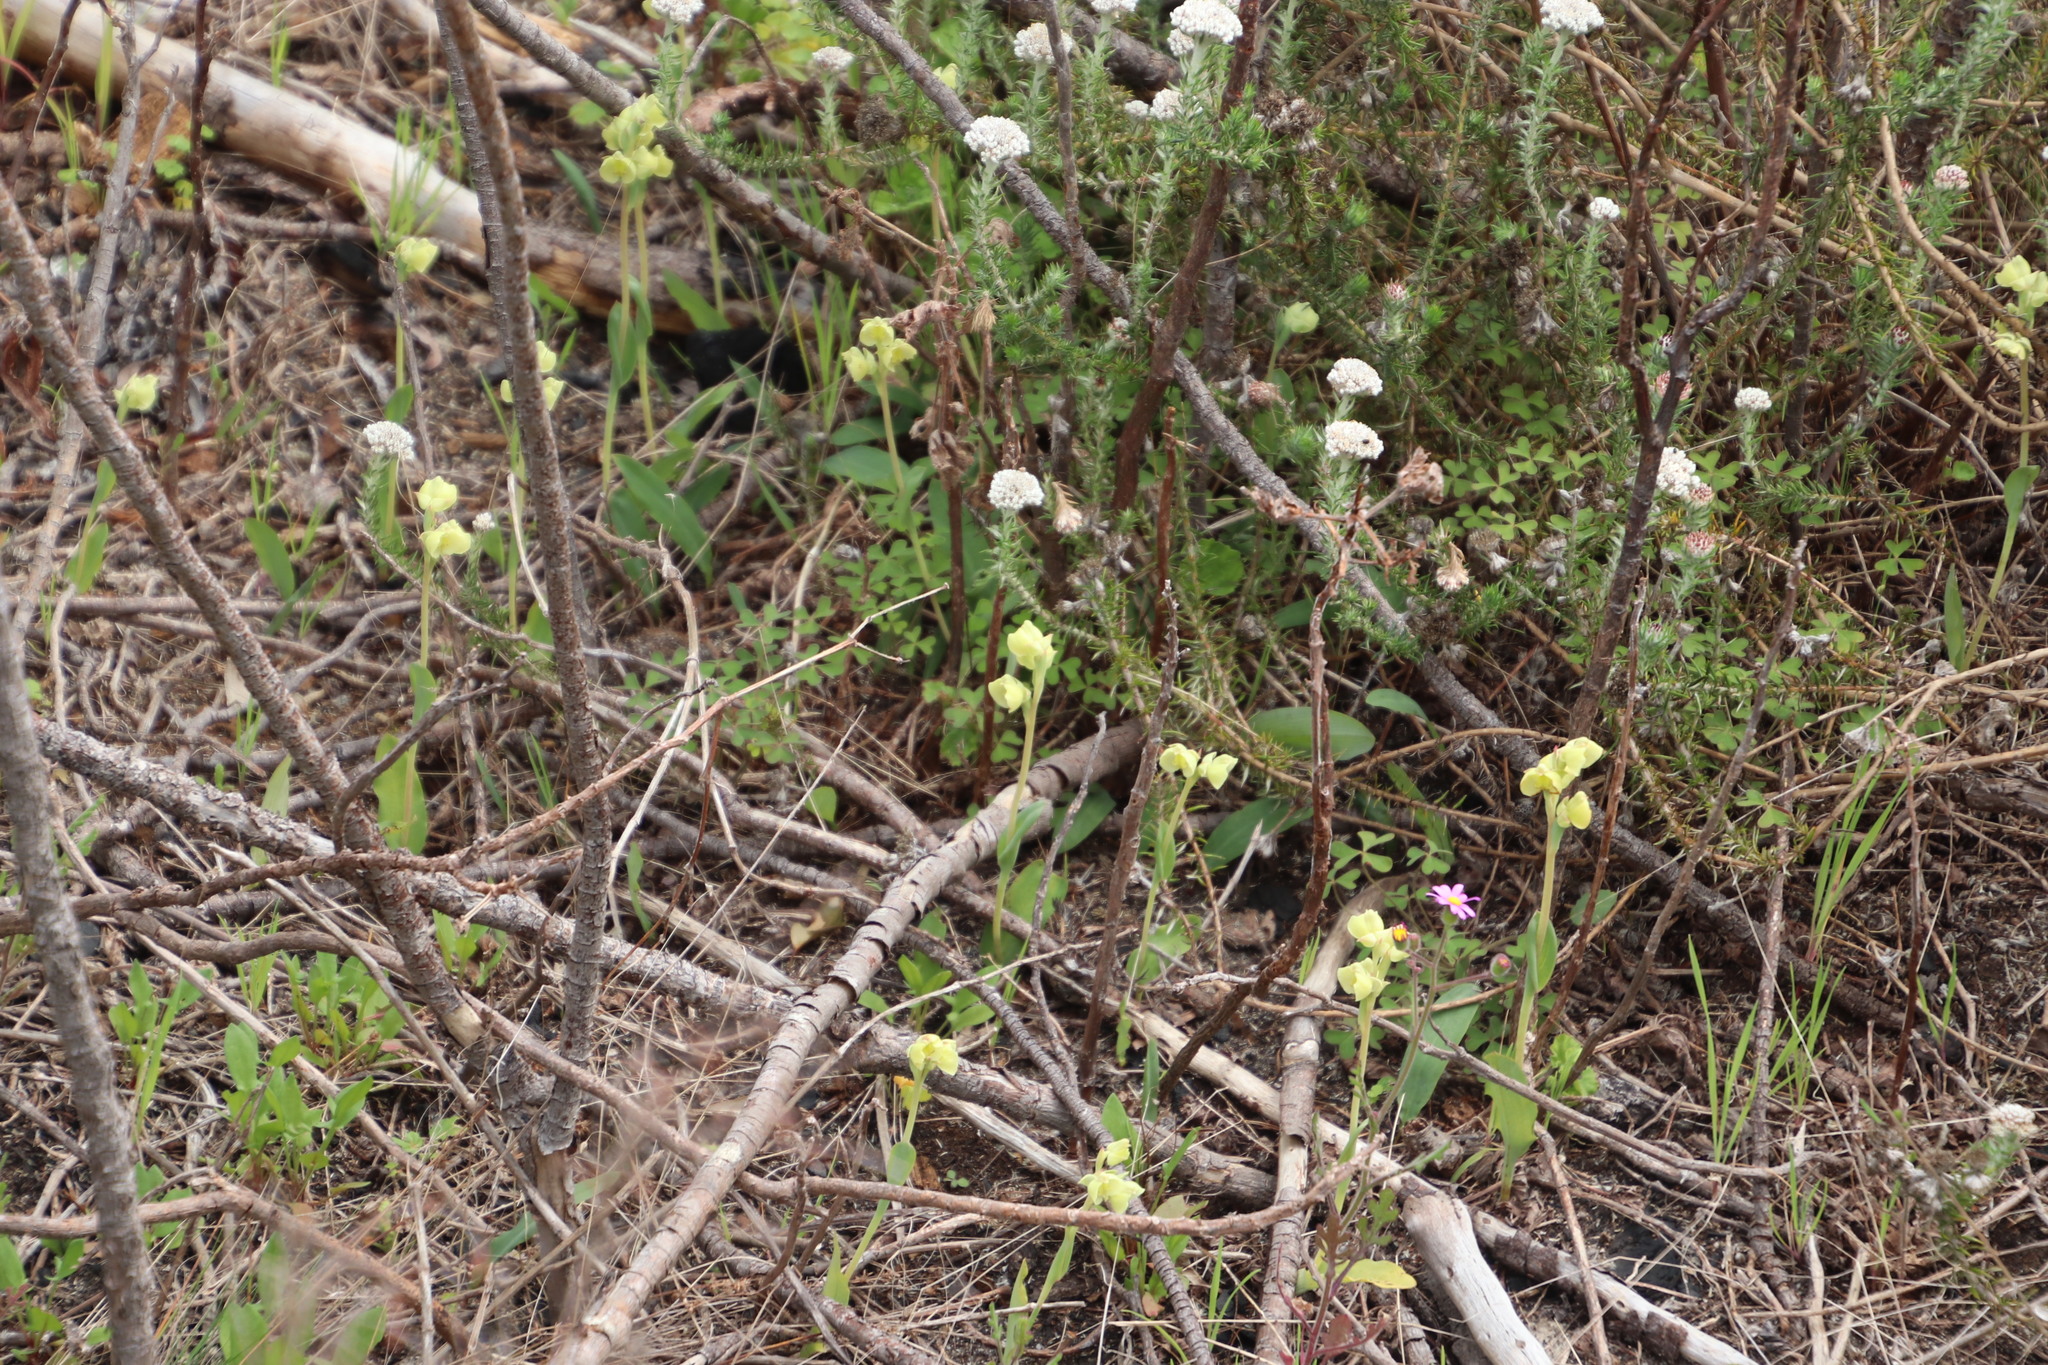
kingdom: Plantae
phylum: Tracheophyta
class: Liliopsida
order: Asparagales
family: Orchidaceae
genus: Pterygodium
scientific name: Pterygodium catholicum
